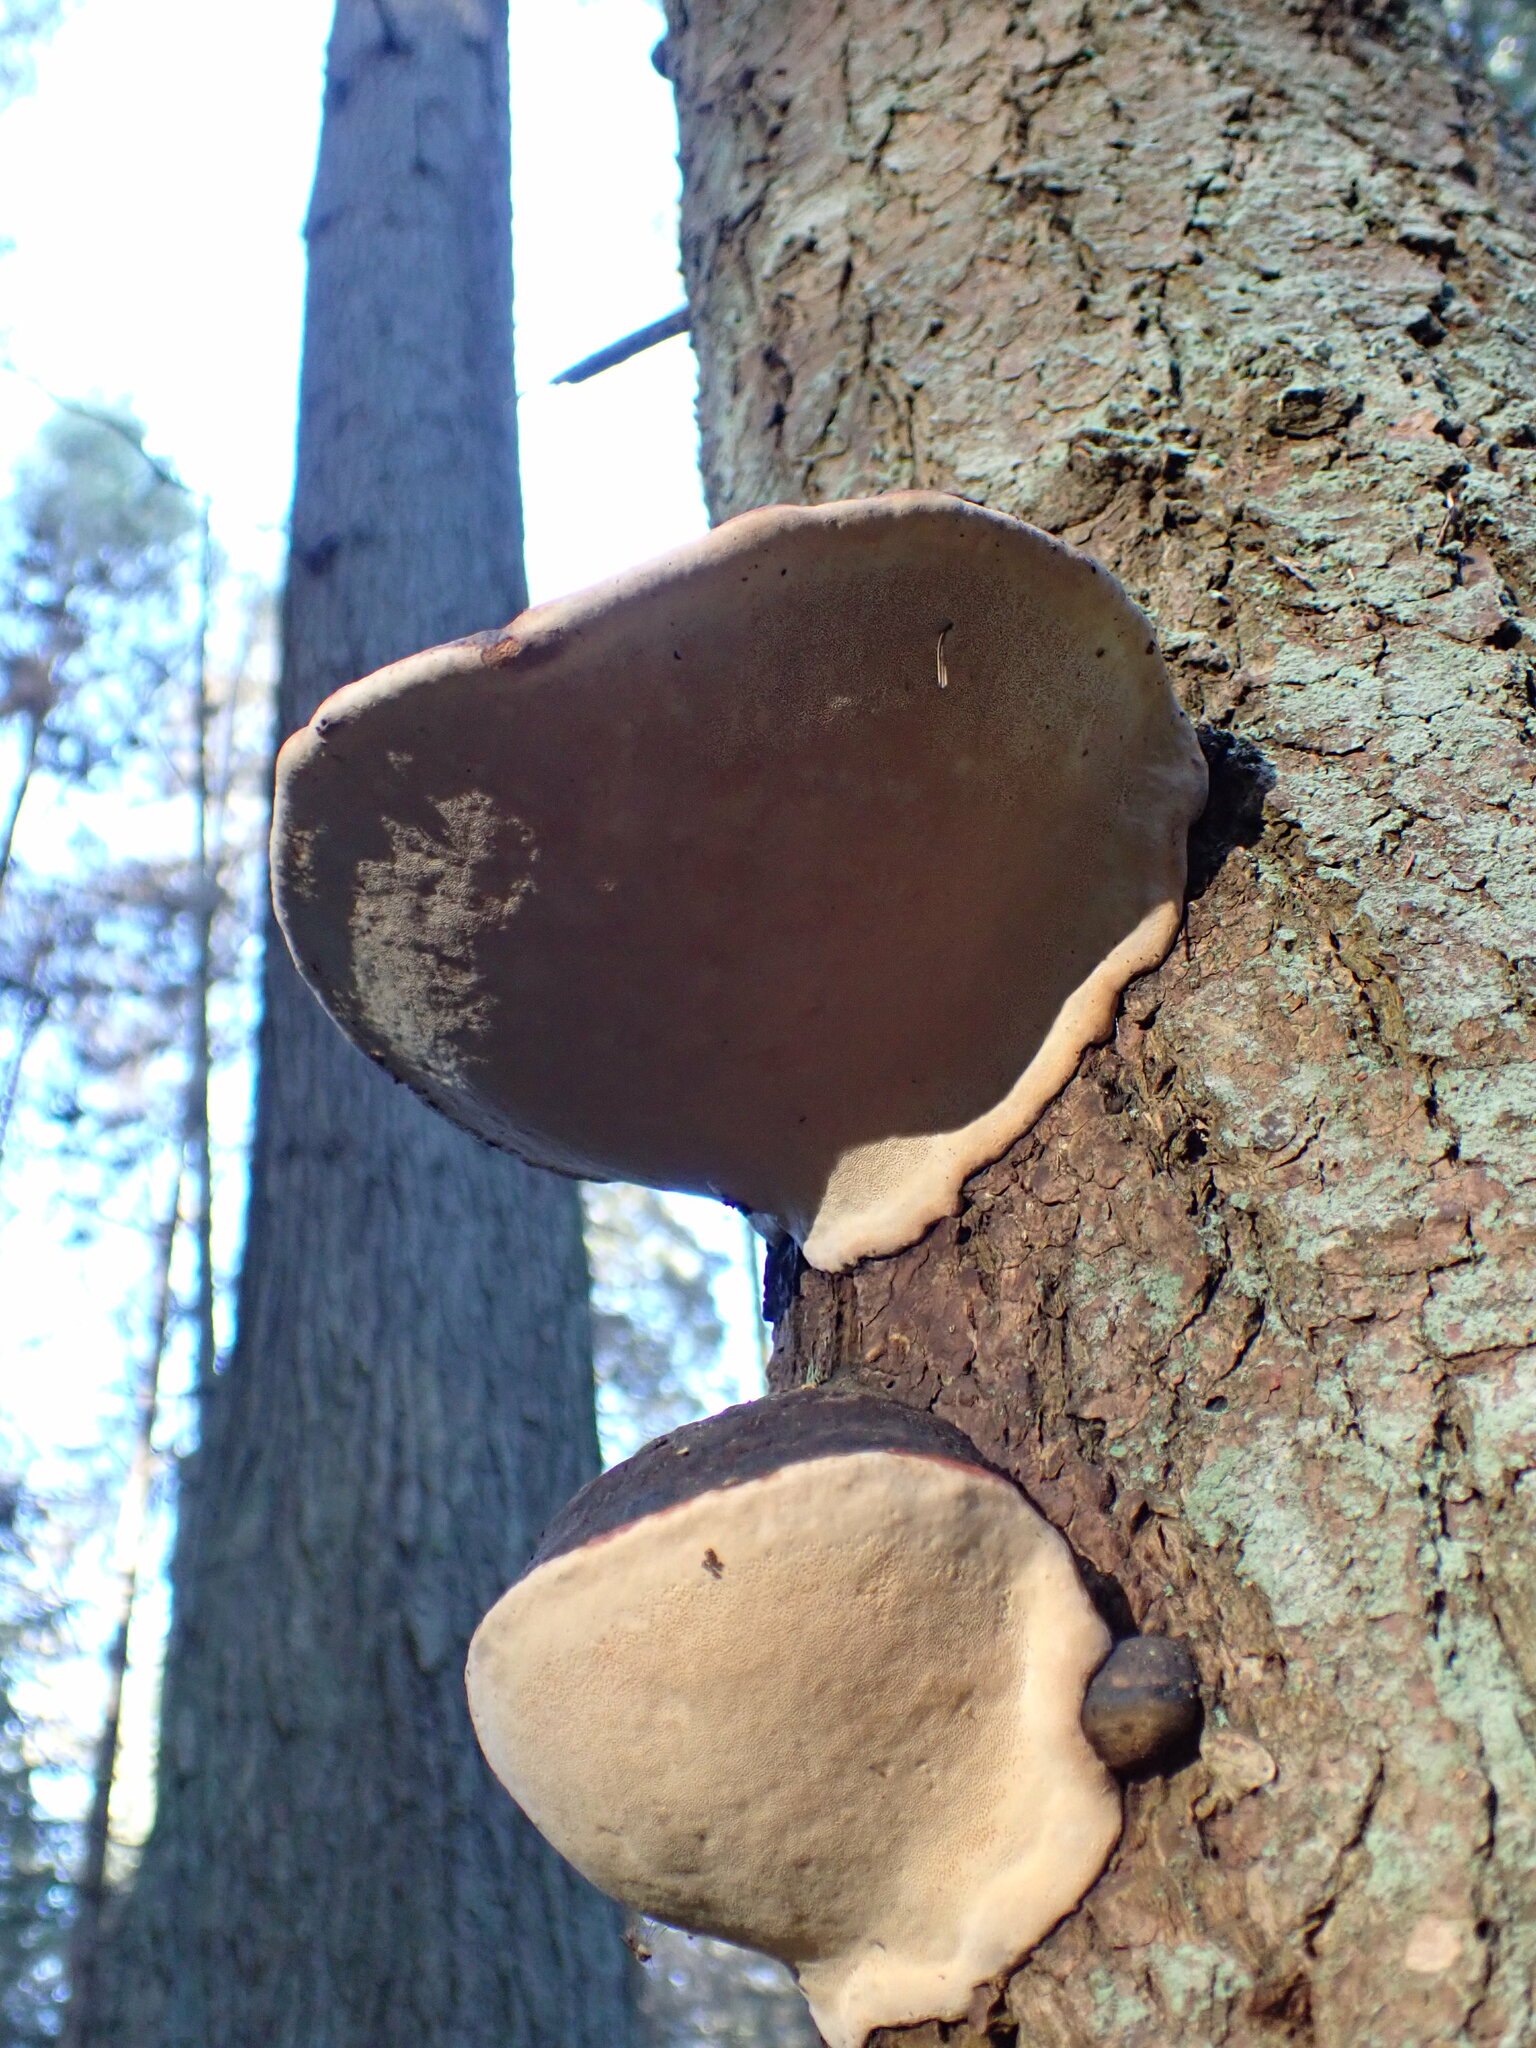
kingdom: Fungi
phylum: Basidiomycota
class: Agaricomycetes
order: Polyporales
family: Fomitopsidaceae
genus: Fomitopsis
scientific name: Fomitopsis mounceae
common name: Northern red belt
